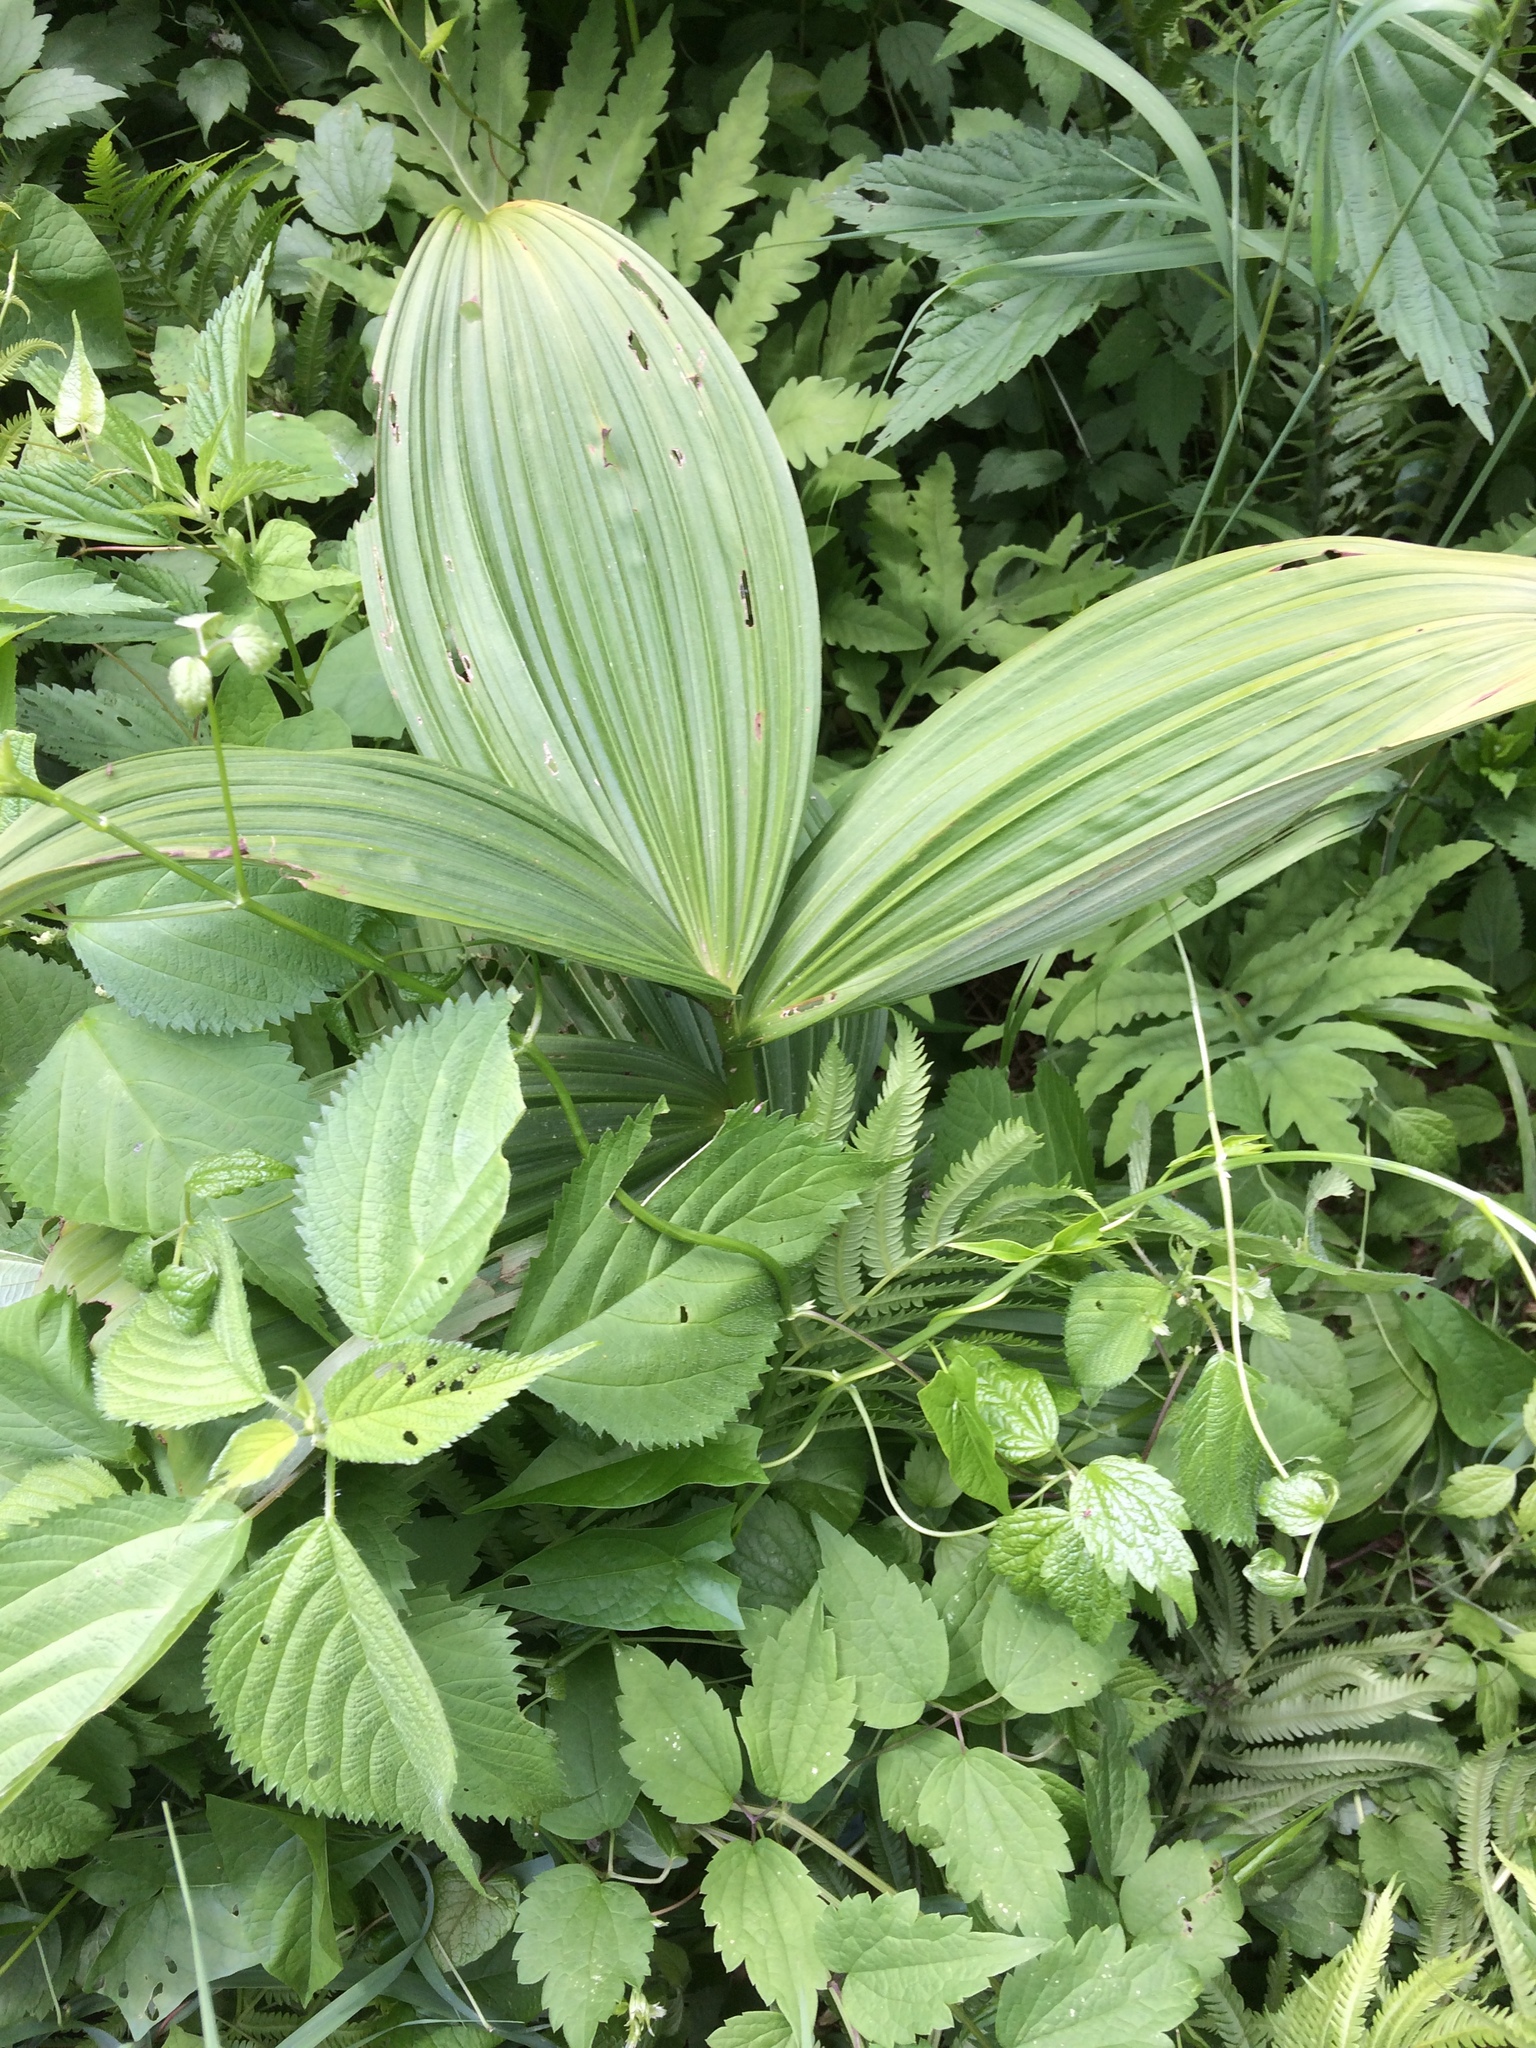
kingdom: Plantae
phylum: Tracheophyta
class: Liliopsida
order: Liliales
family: Melanthiaceae
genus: Veratrum
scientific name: Veratrum viride
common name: American false hellebore
